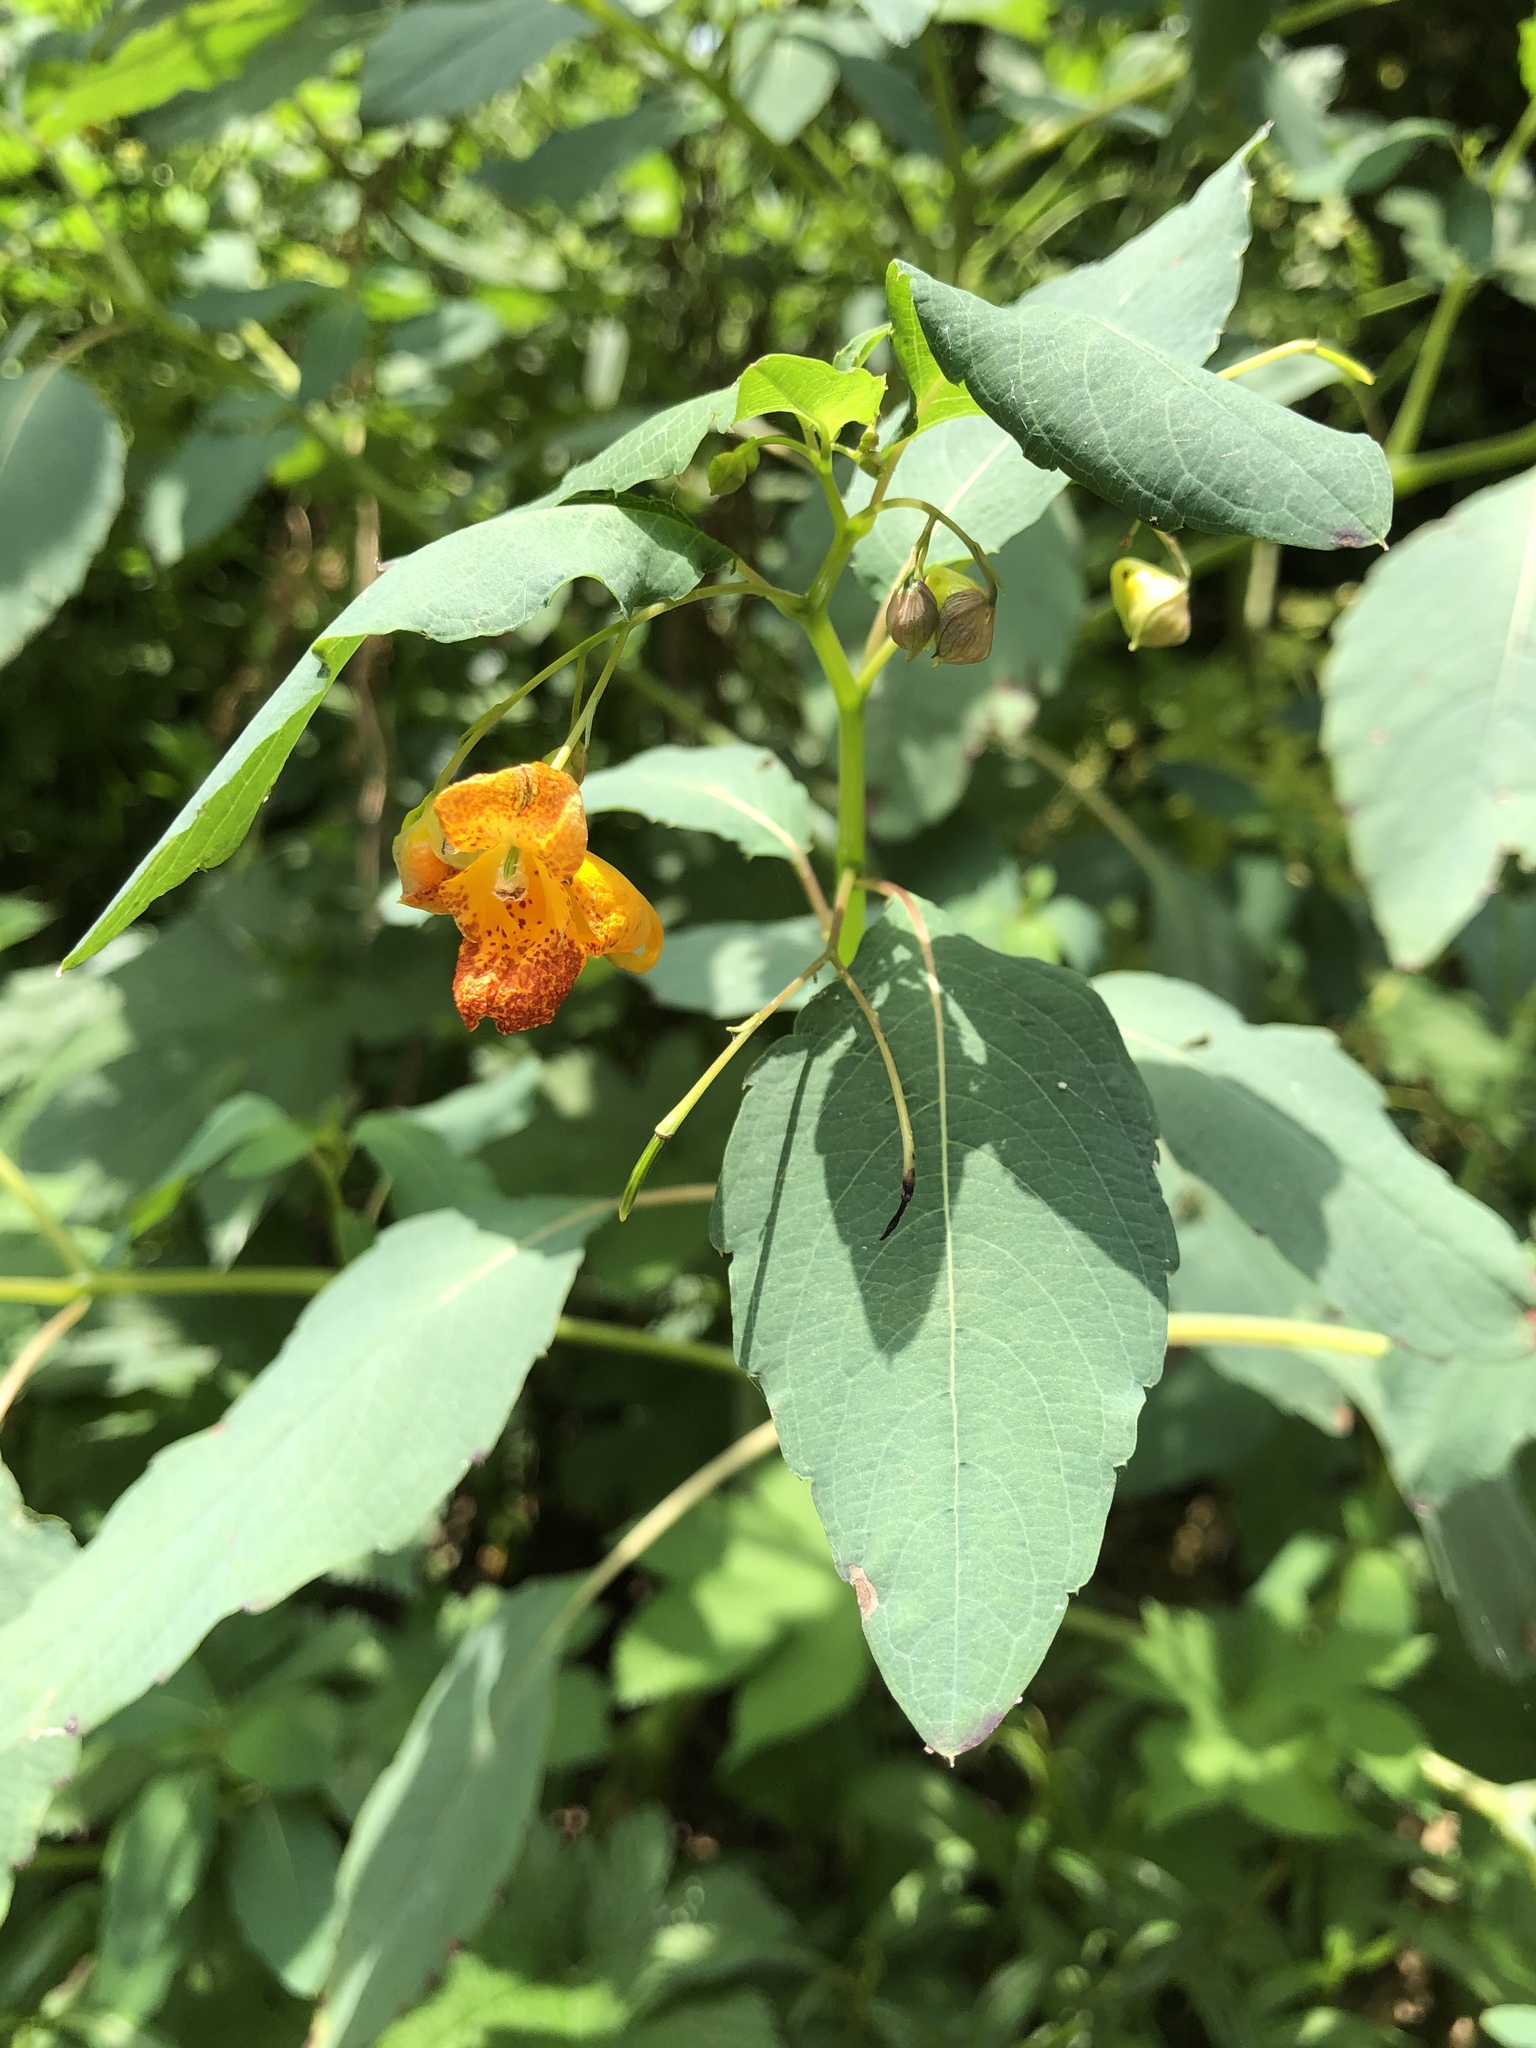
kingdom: Plantae
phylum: Tracheophyta
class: Magnoliopsida
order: Ericales
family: Balsaminaceae
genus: Impatiens
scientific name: Impatiens capensis
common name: Orange balsam
